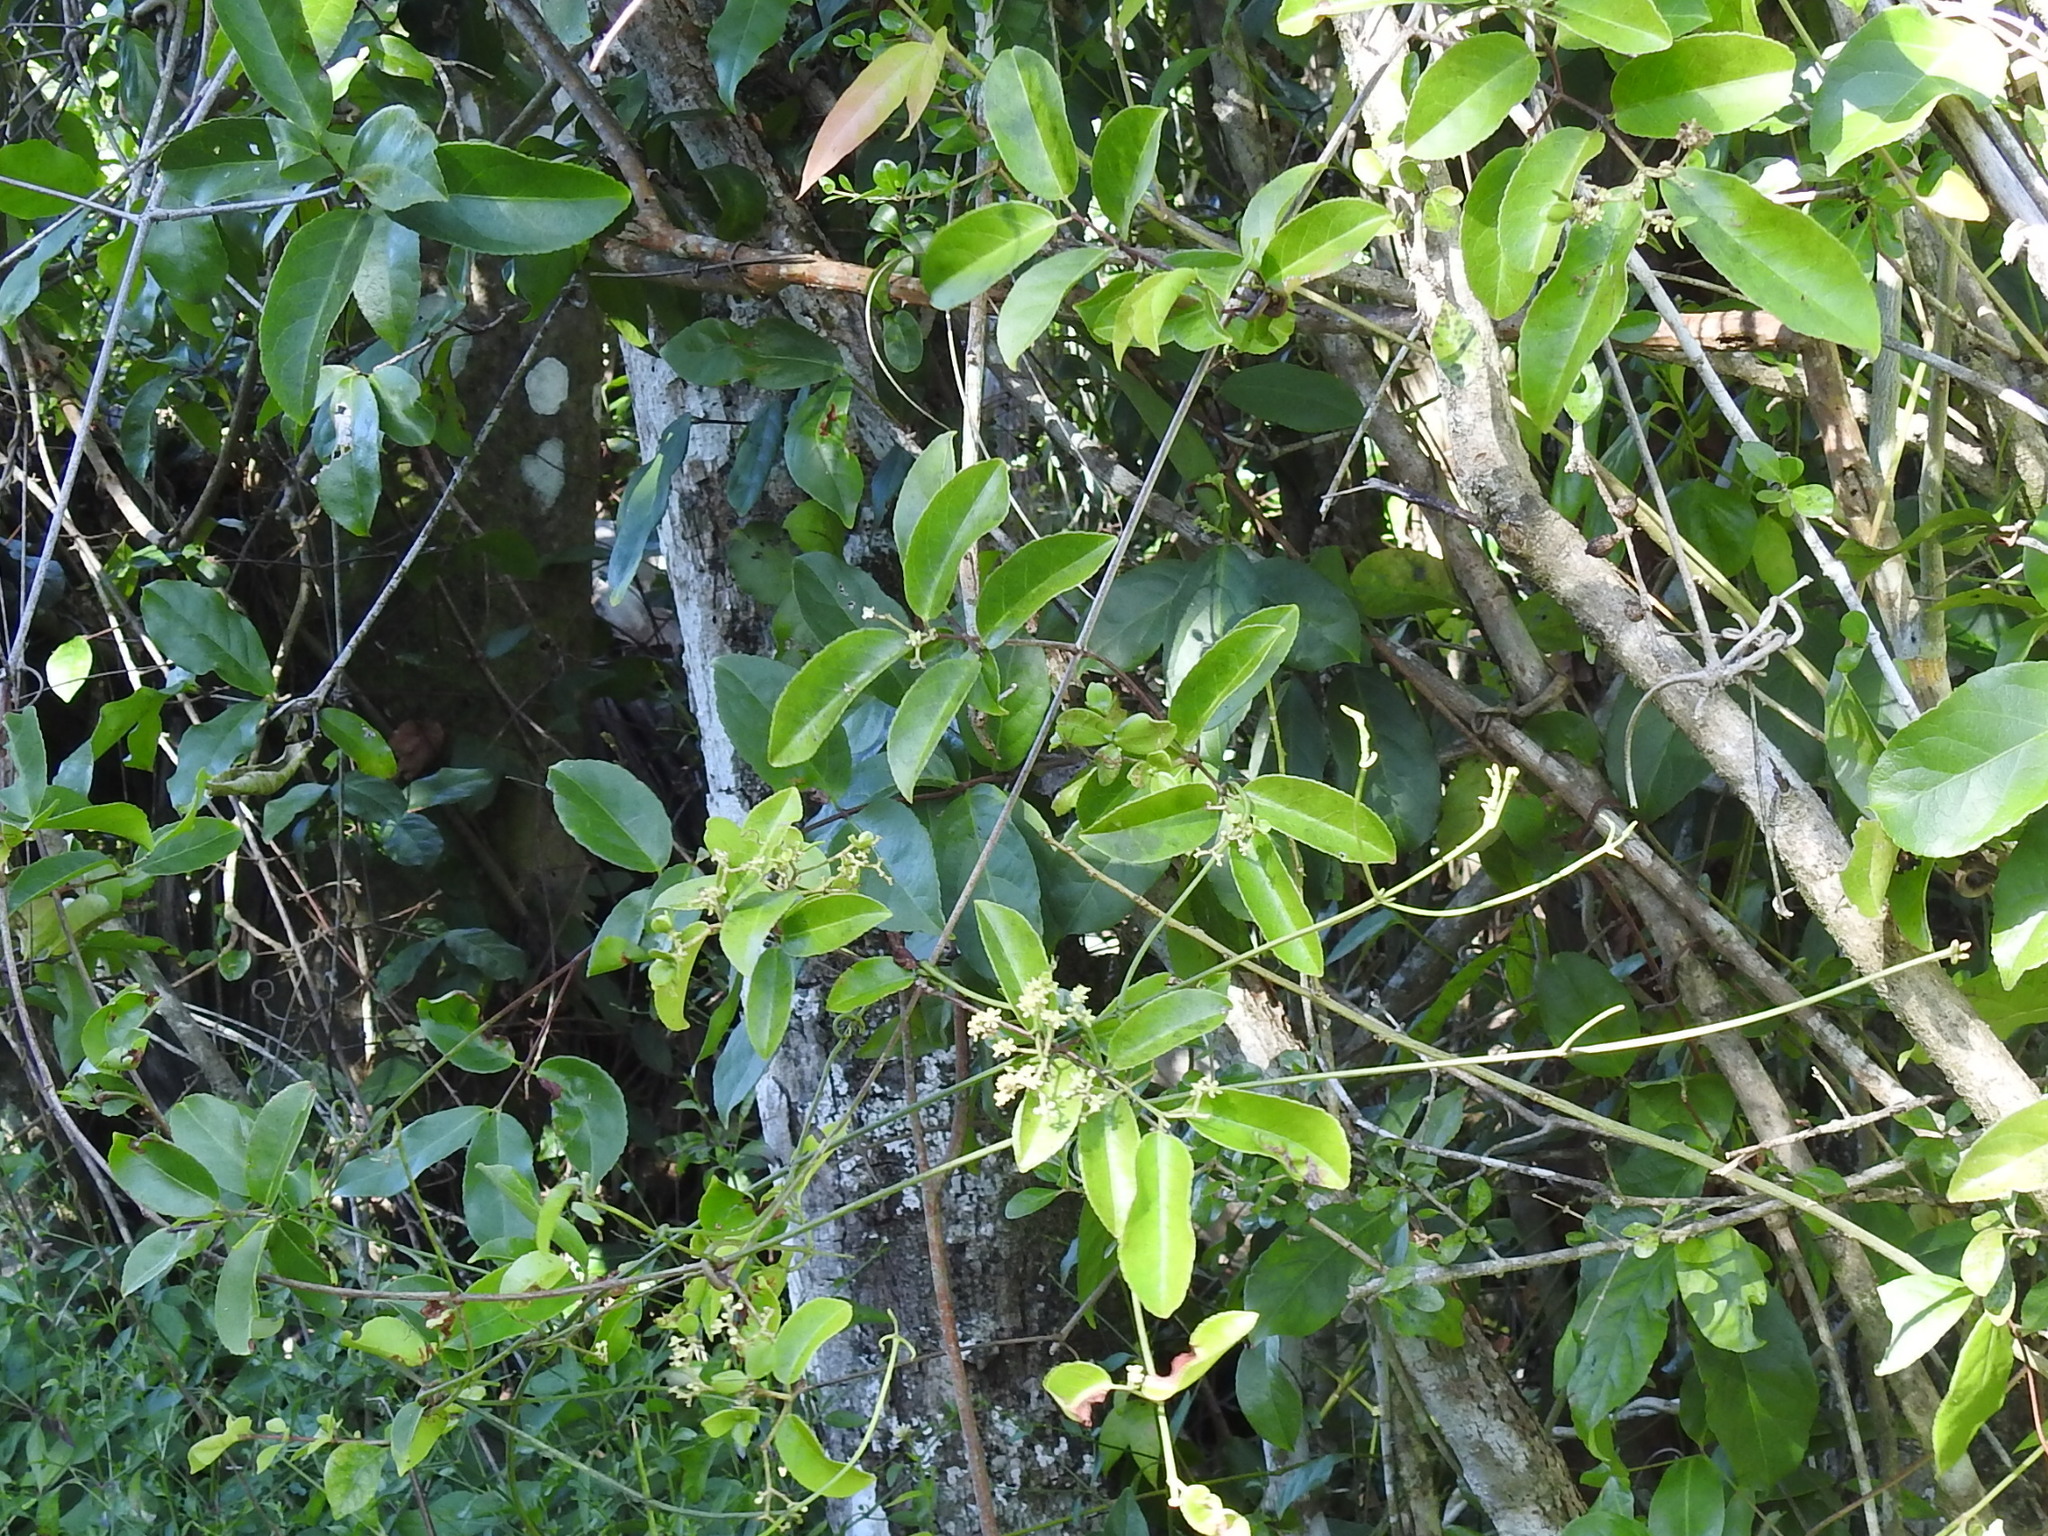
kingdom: Plantae
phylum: Tracheophyta
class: Magnoliopsida
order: Celastrales
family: Celastraceae
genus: Hippocratea
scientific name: Hippocratea volubilis
